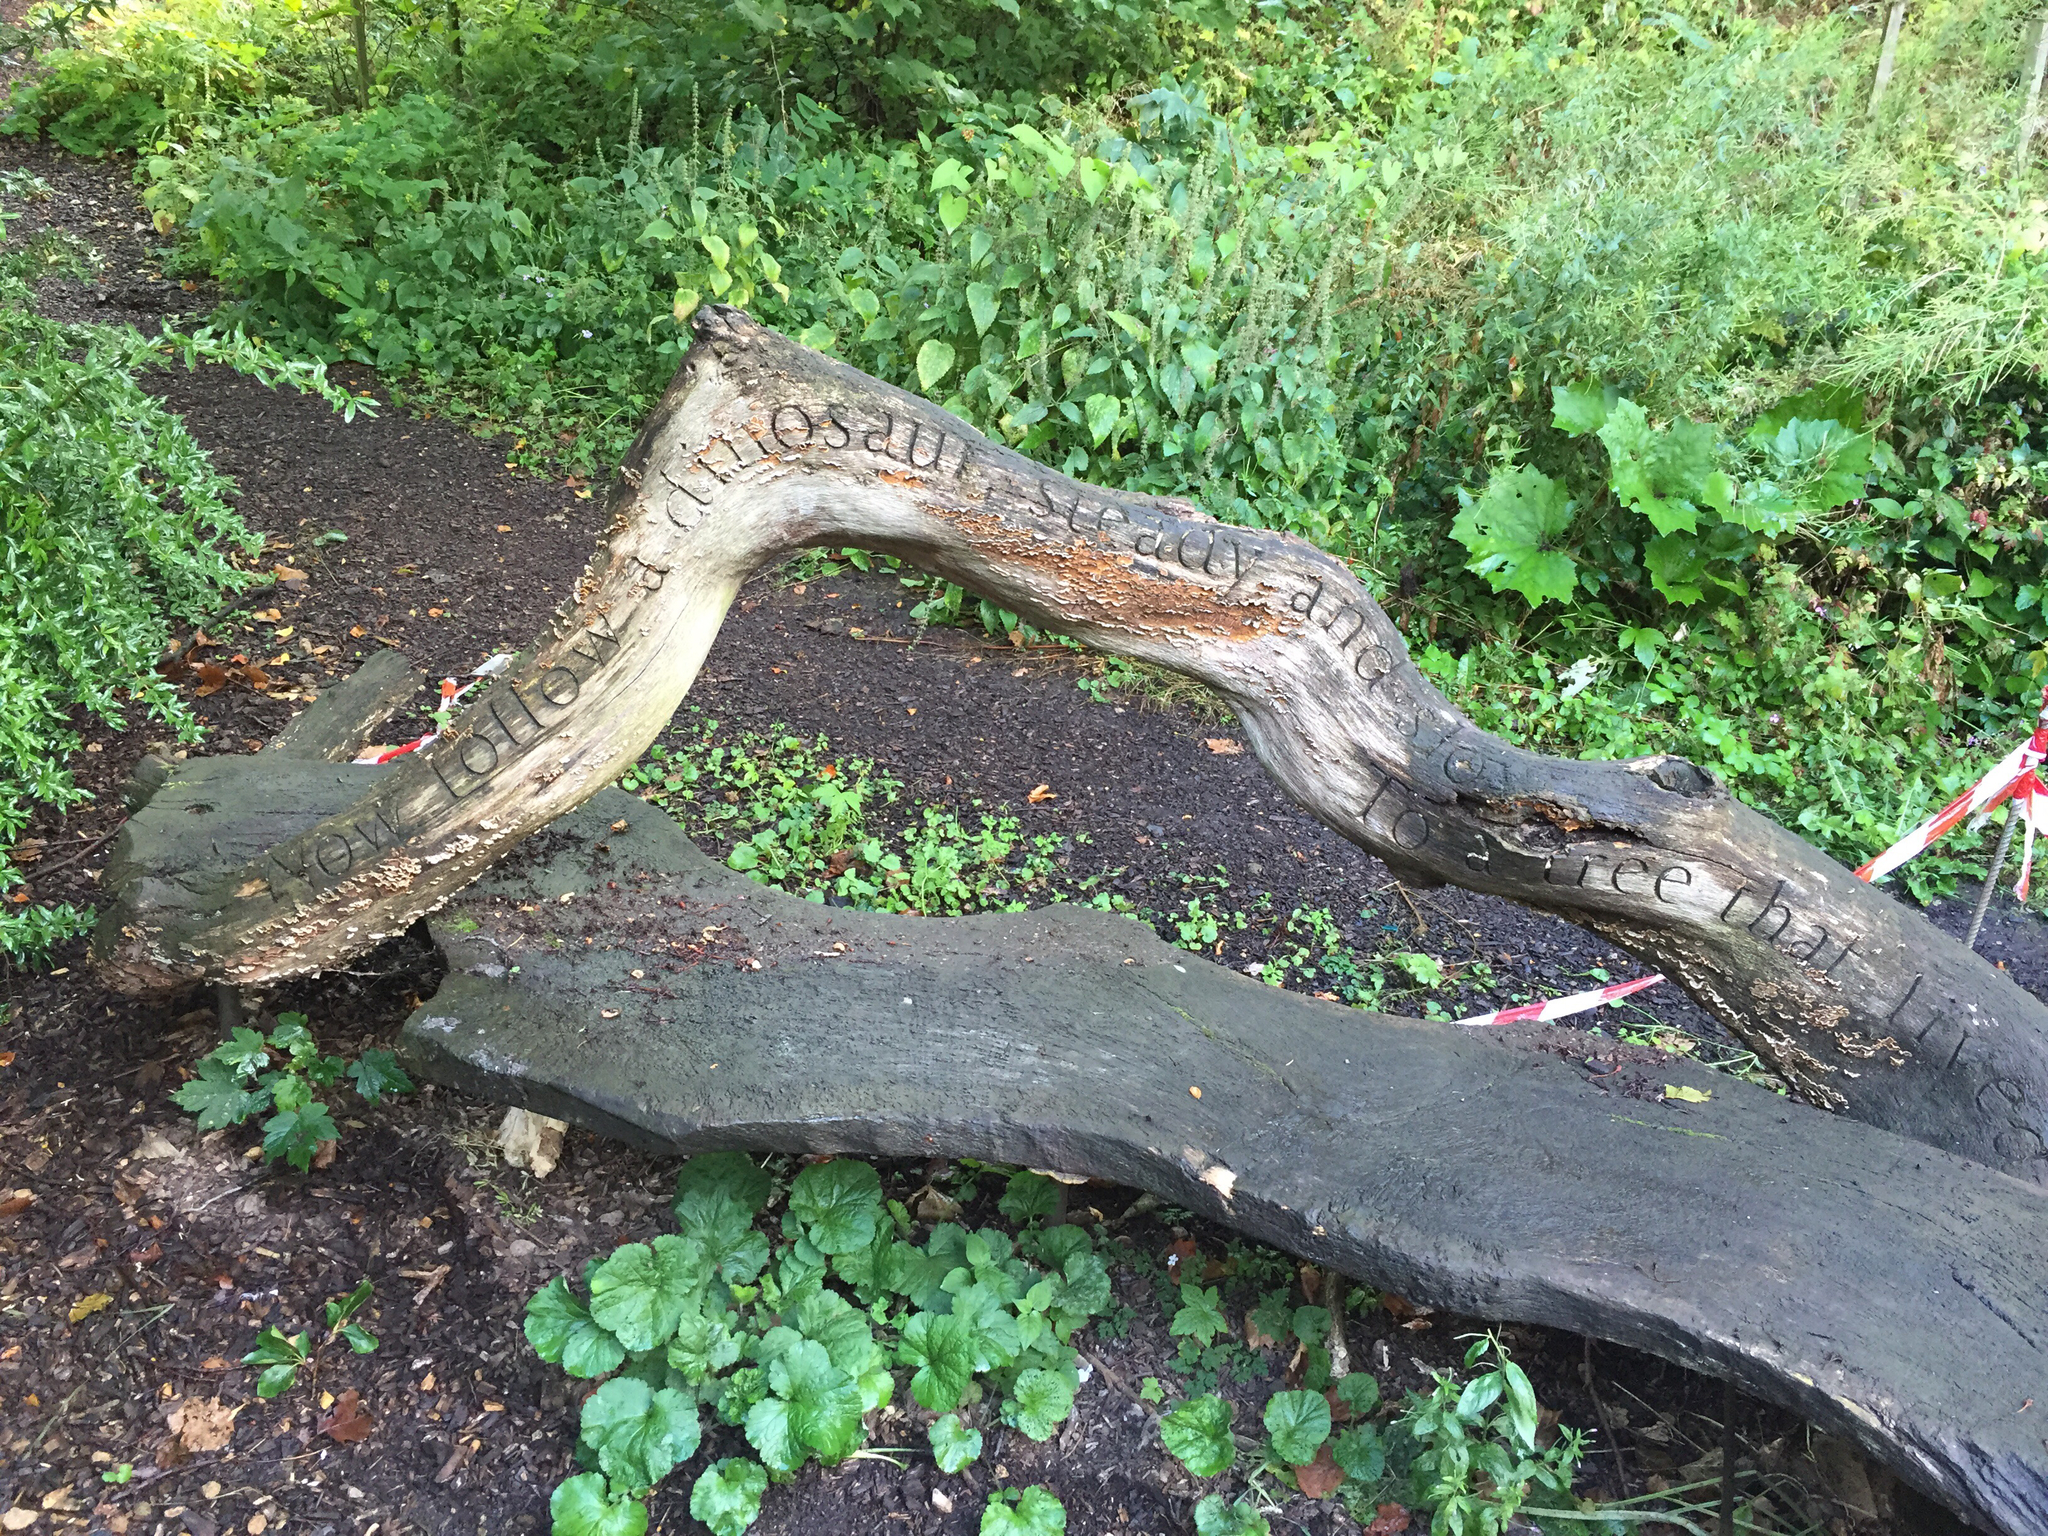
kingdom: Fungi
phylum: Basidiomycota
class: Agaricomycetes
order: Russulales
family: Stereaceae
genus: Stereum
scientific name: Stereum hirsutum
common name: Hairy curtain crust
